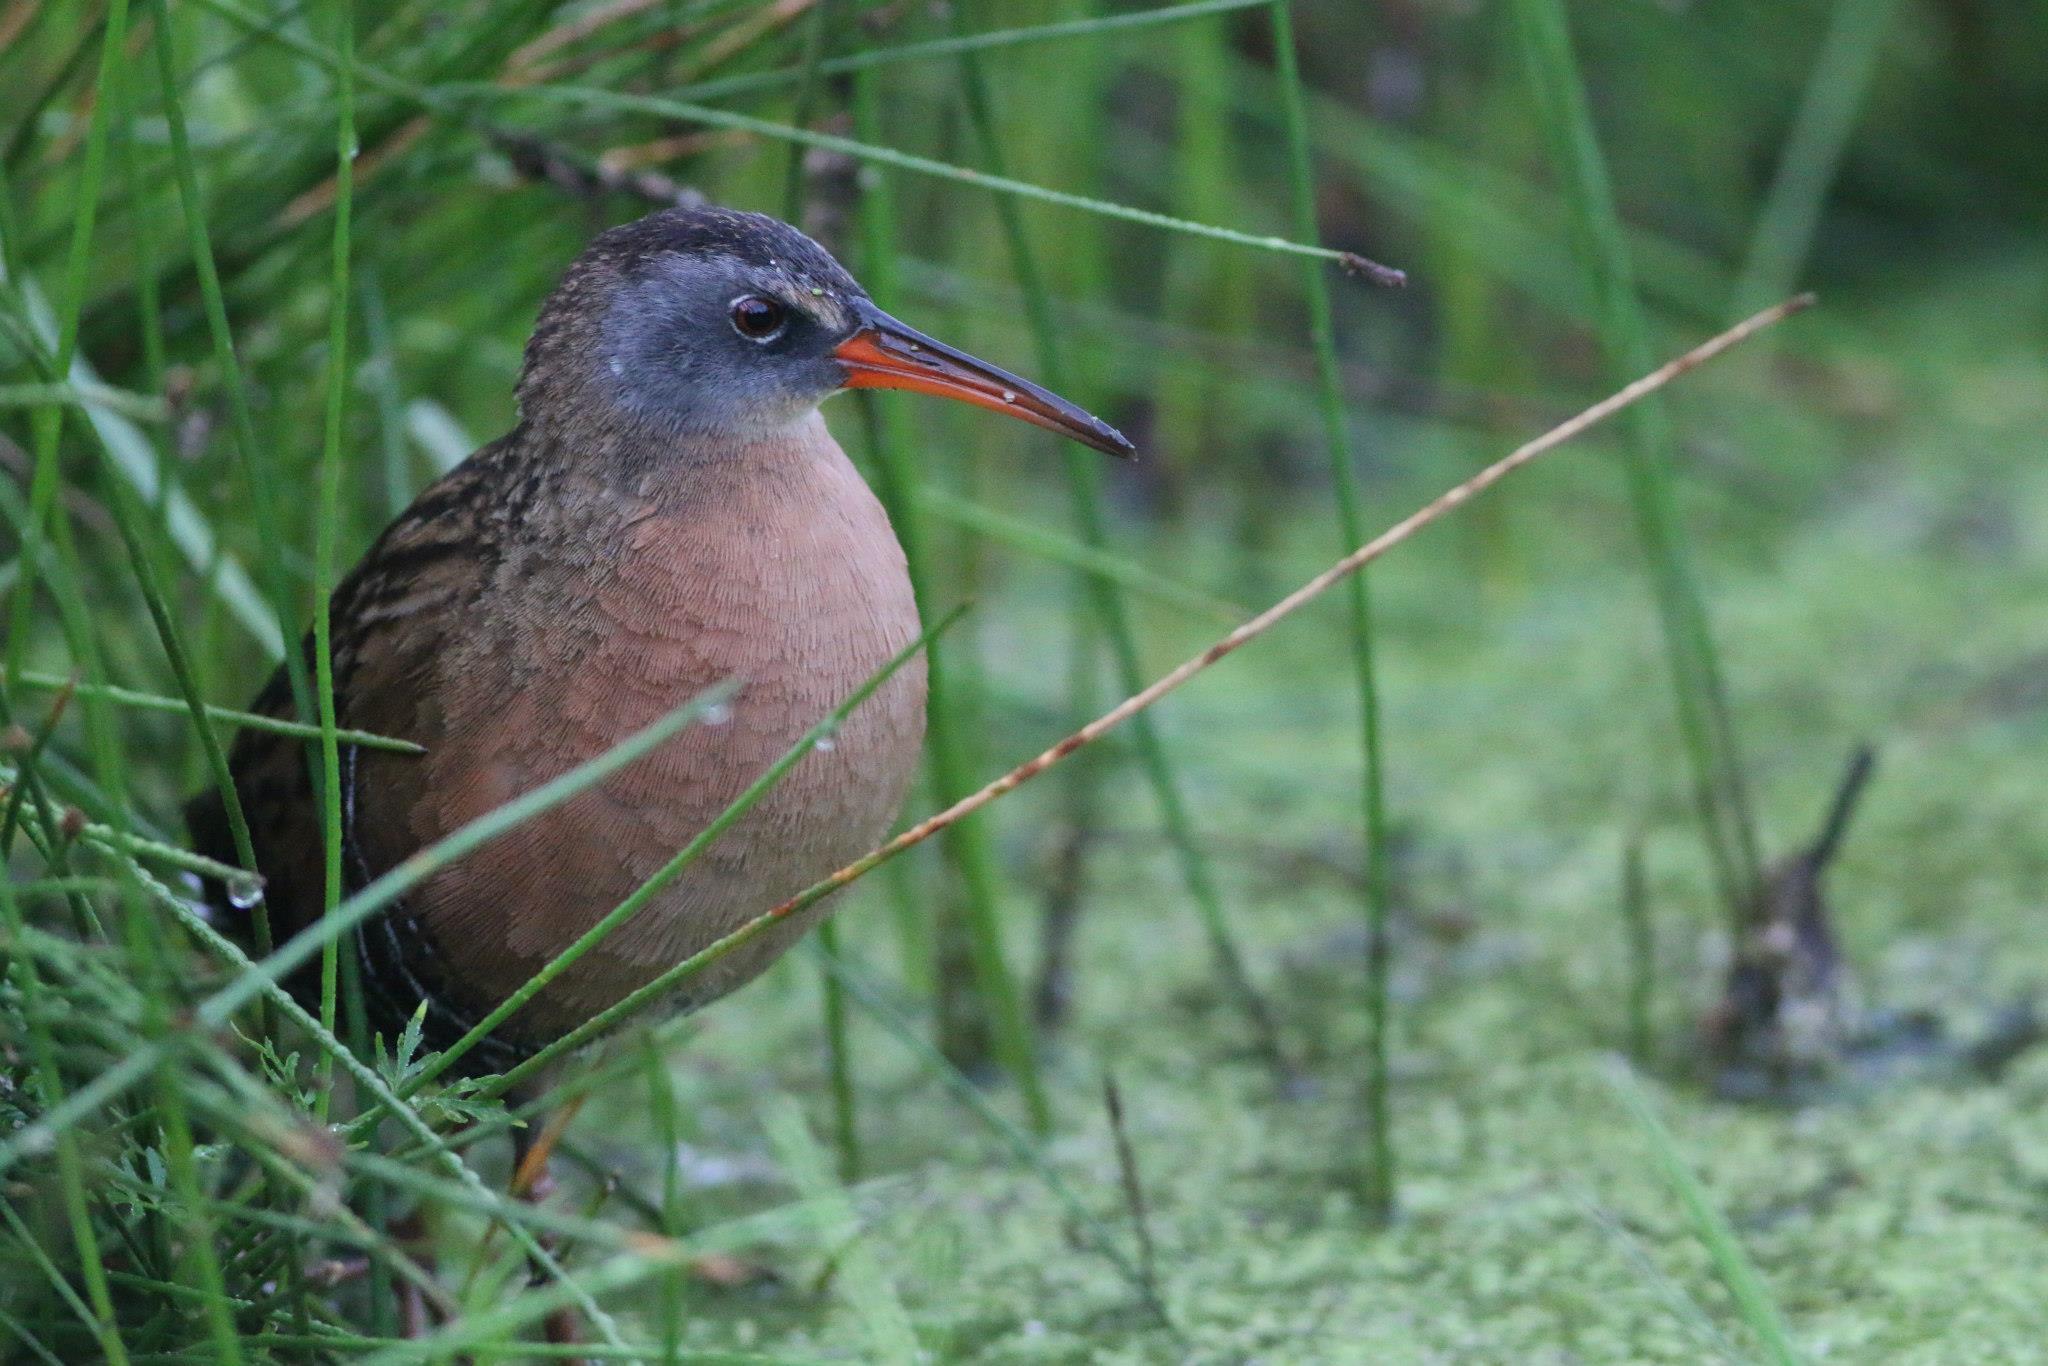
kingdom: Animalia
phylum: Chordata
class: Aves
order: Gruiformes
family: Rallidae
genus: Rallus
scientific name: Rallus limicola
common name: Virginia rail
